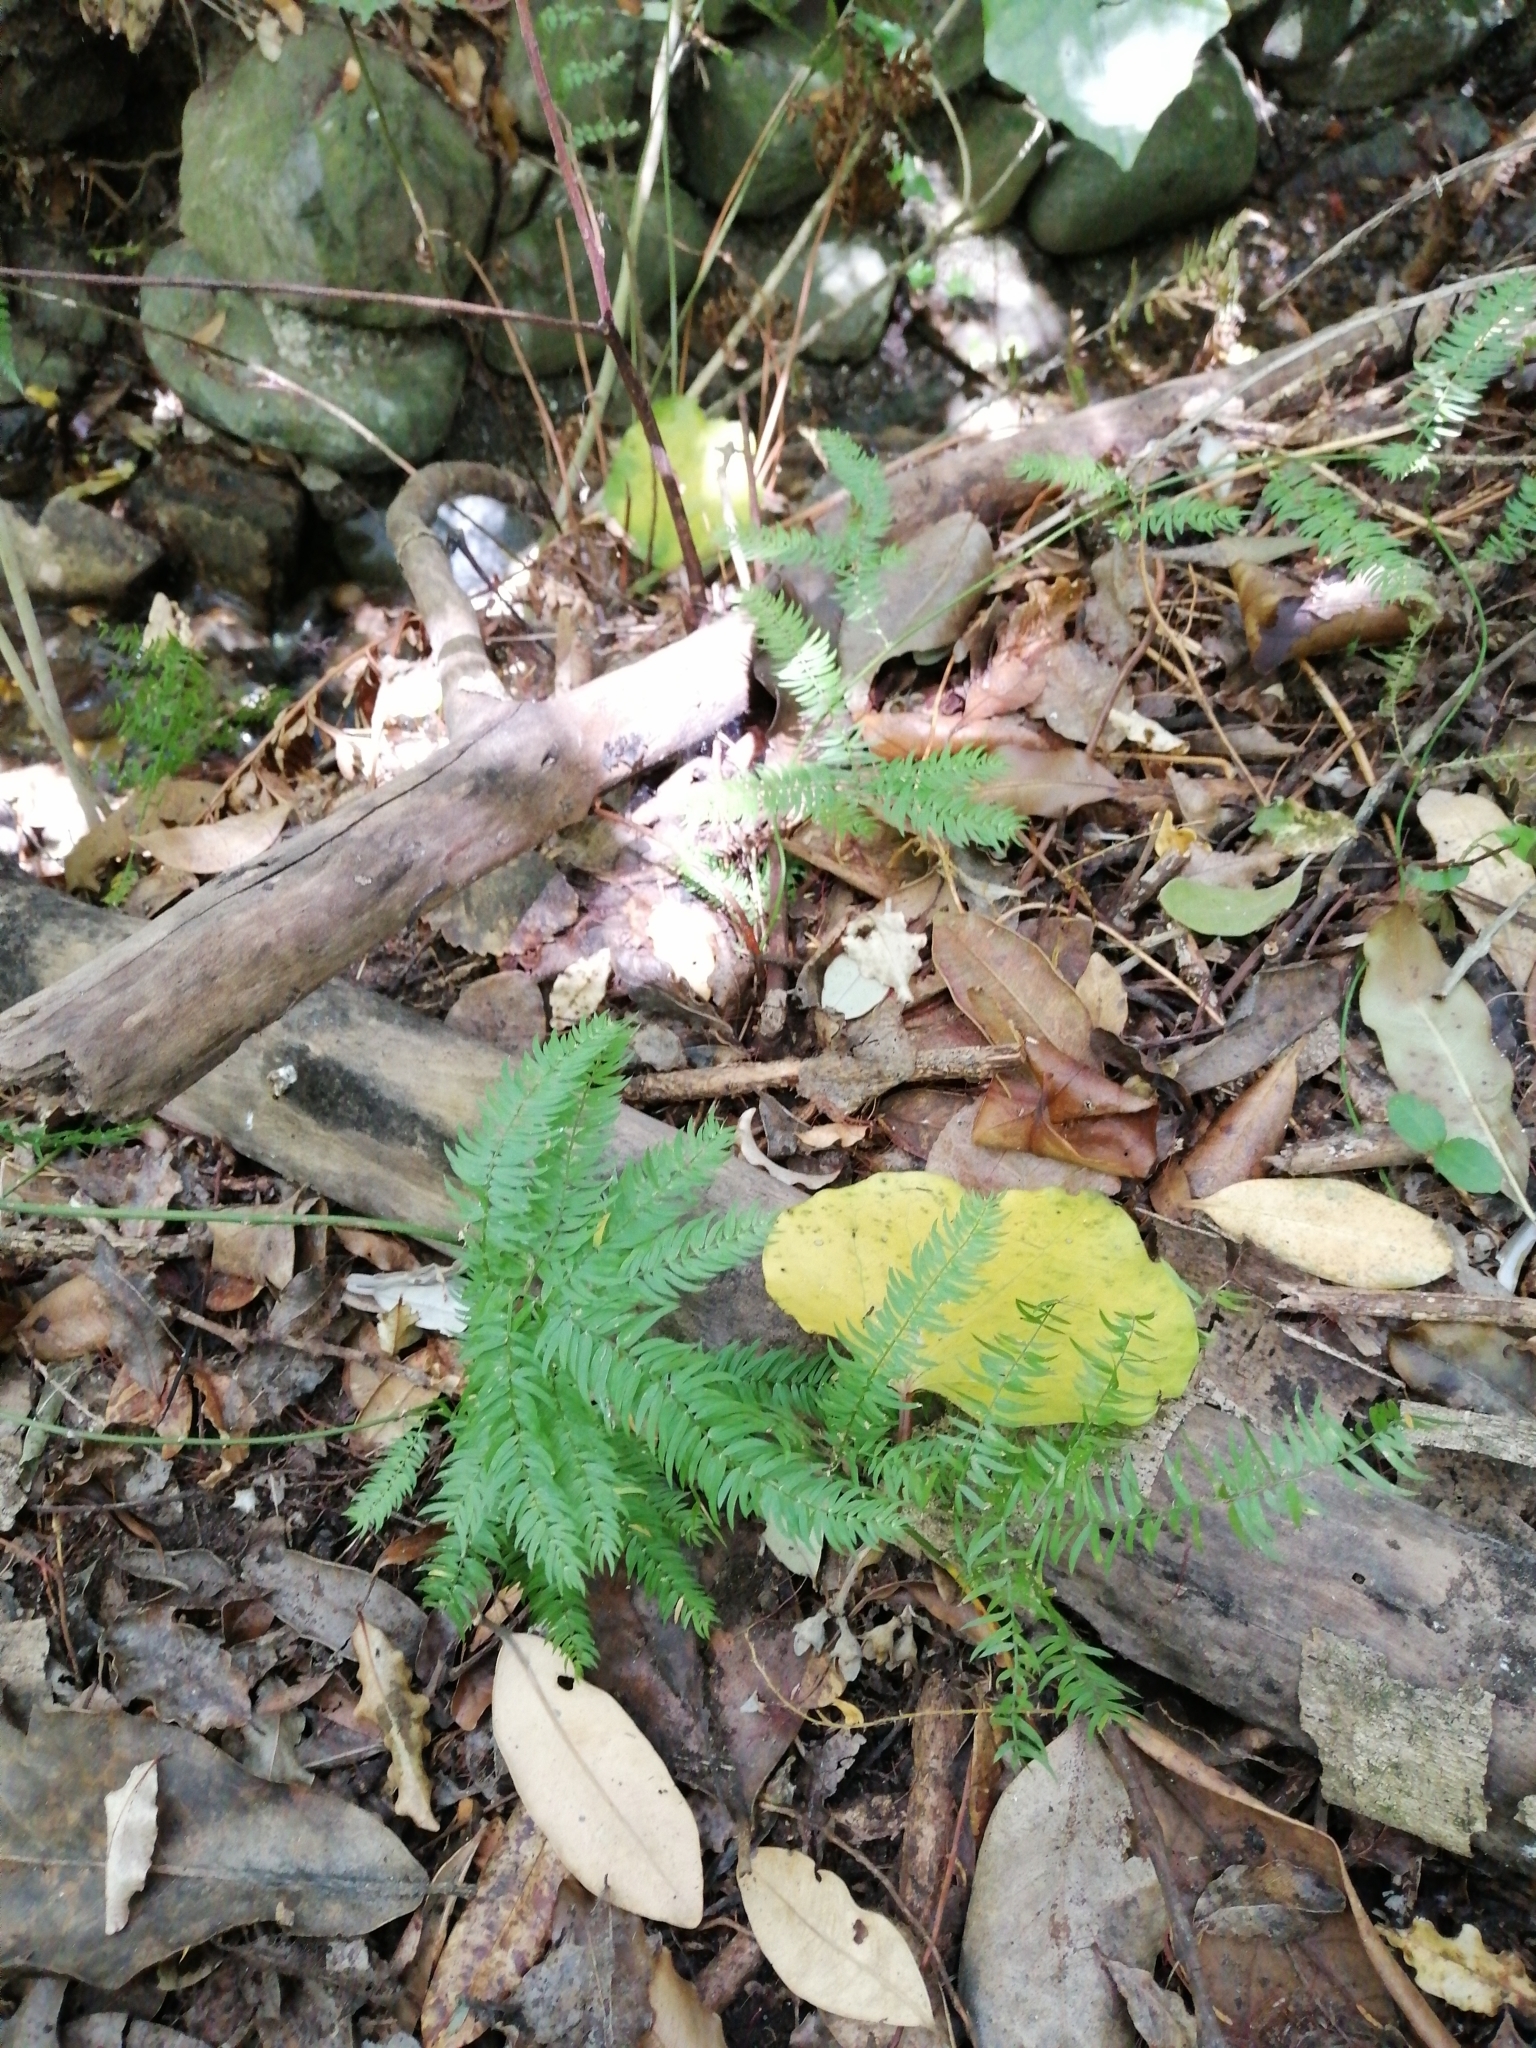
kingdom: Plantae
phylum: Tracheophyta
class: Liliopsida
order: Asparagales
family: Asparagaceae
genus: Asparagus
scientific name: Asparagus scandens
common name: Asparagus-fern
